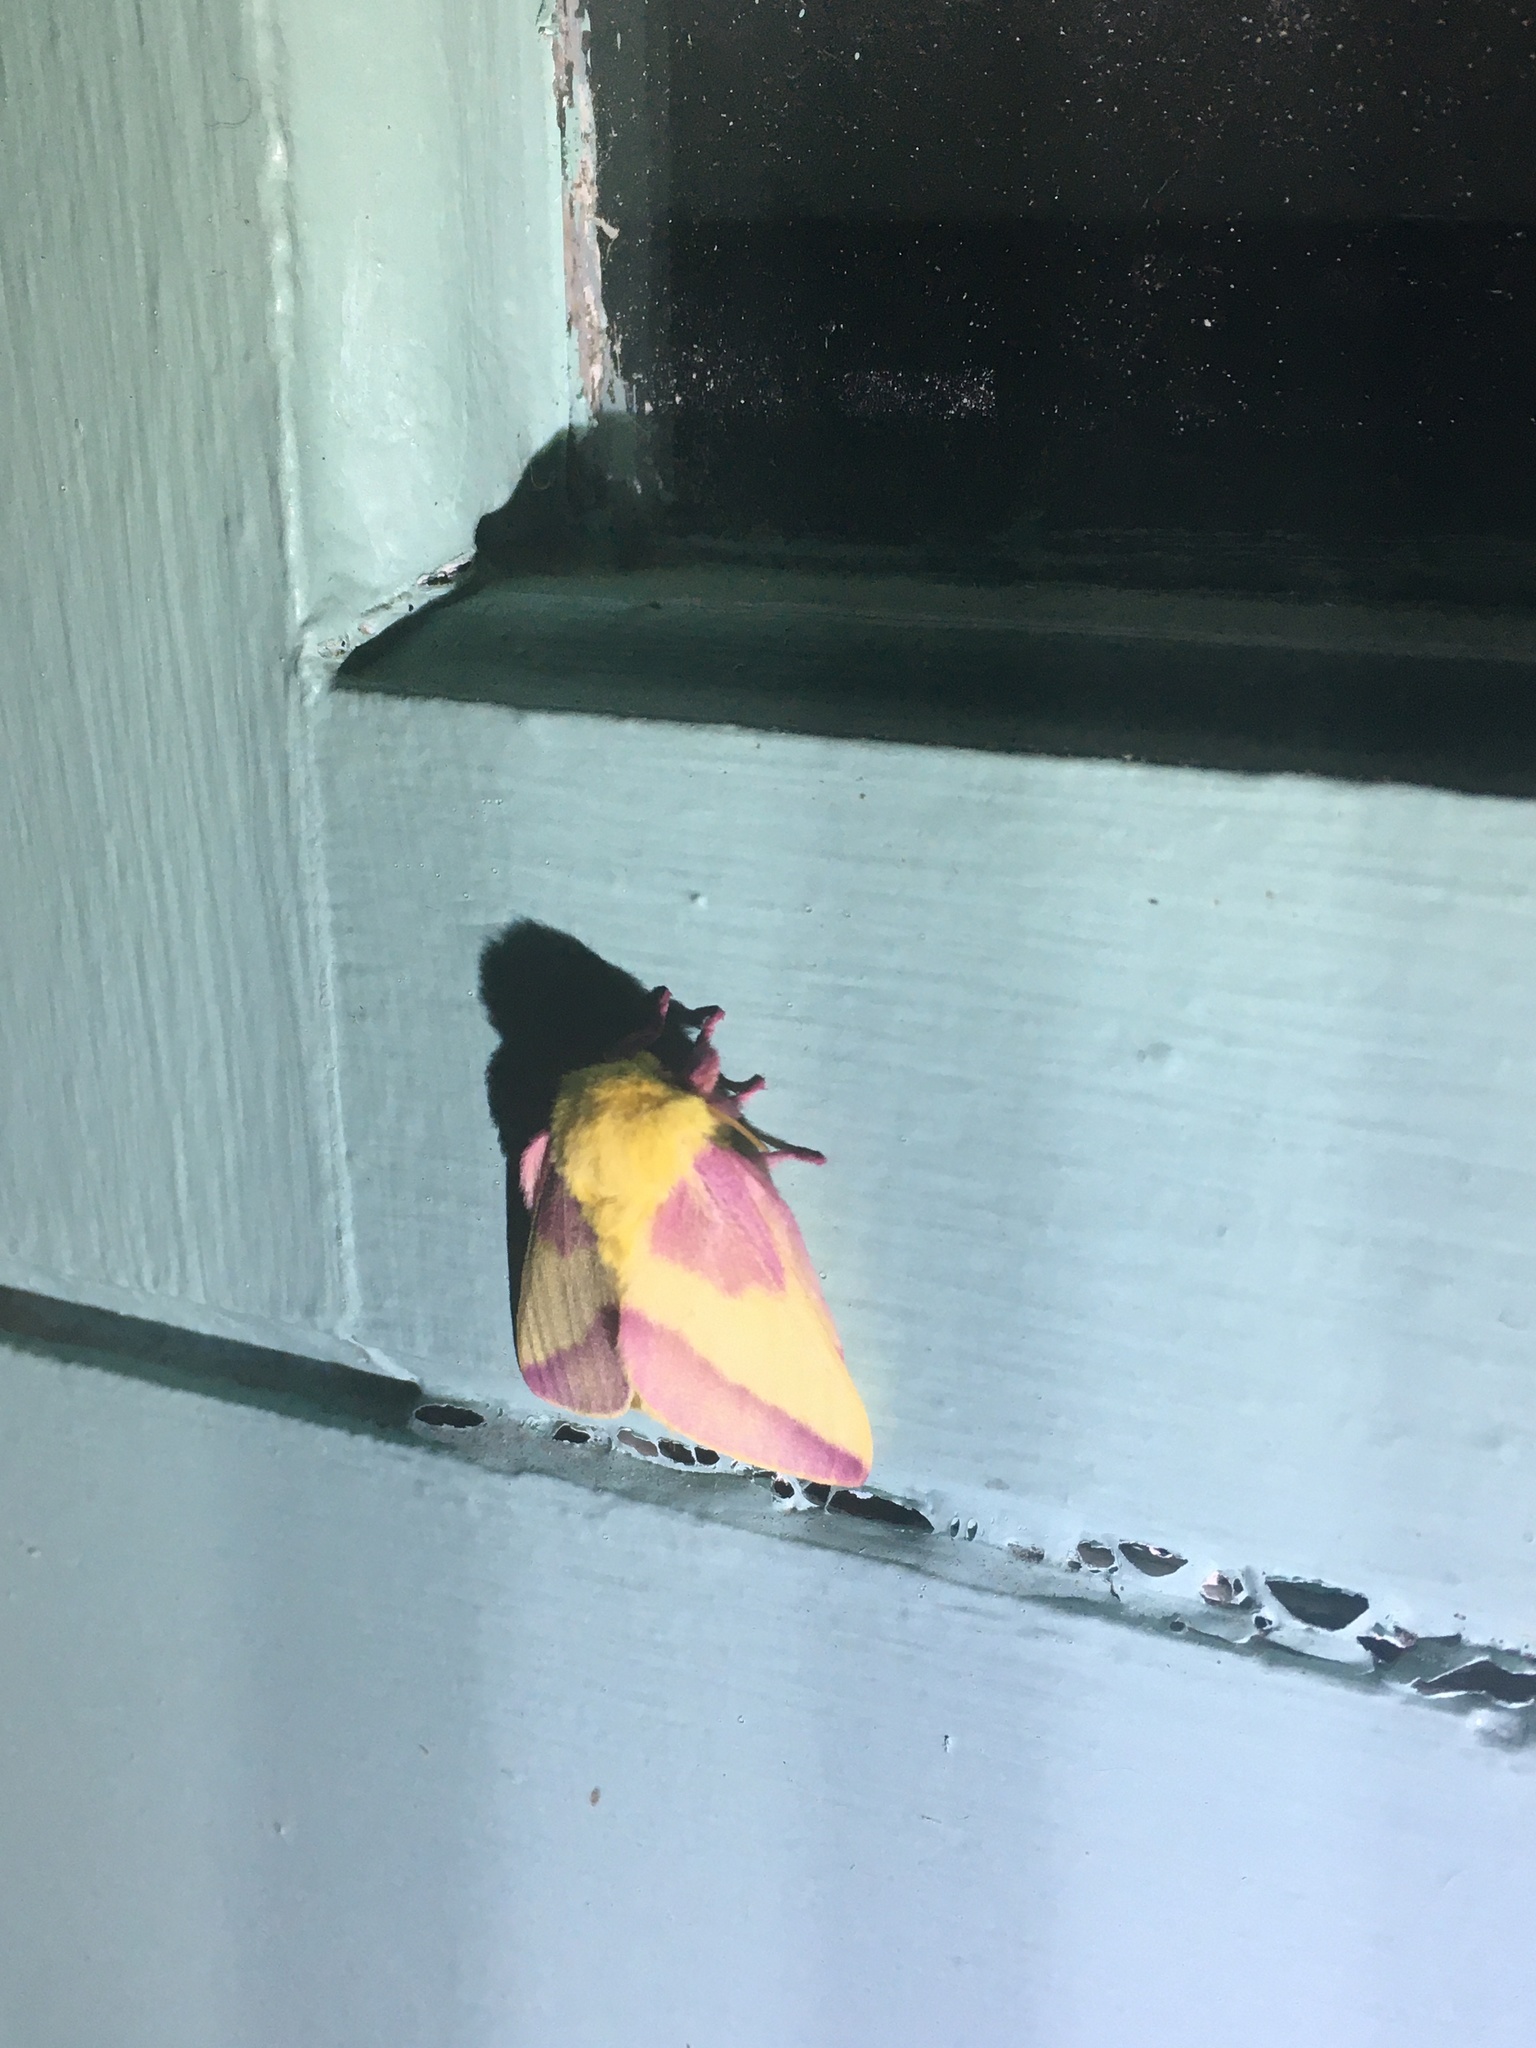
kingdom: Animalia
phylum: Arthropoda
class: Insecta
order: Lepidoptera
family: Saturniidae
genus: Dryocampa
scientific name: Dryocampa rubicunda
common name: Rosy maple moth
